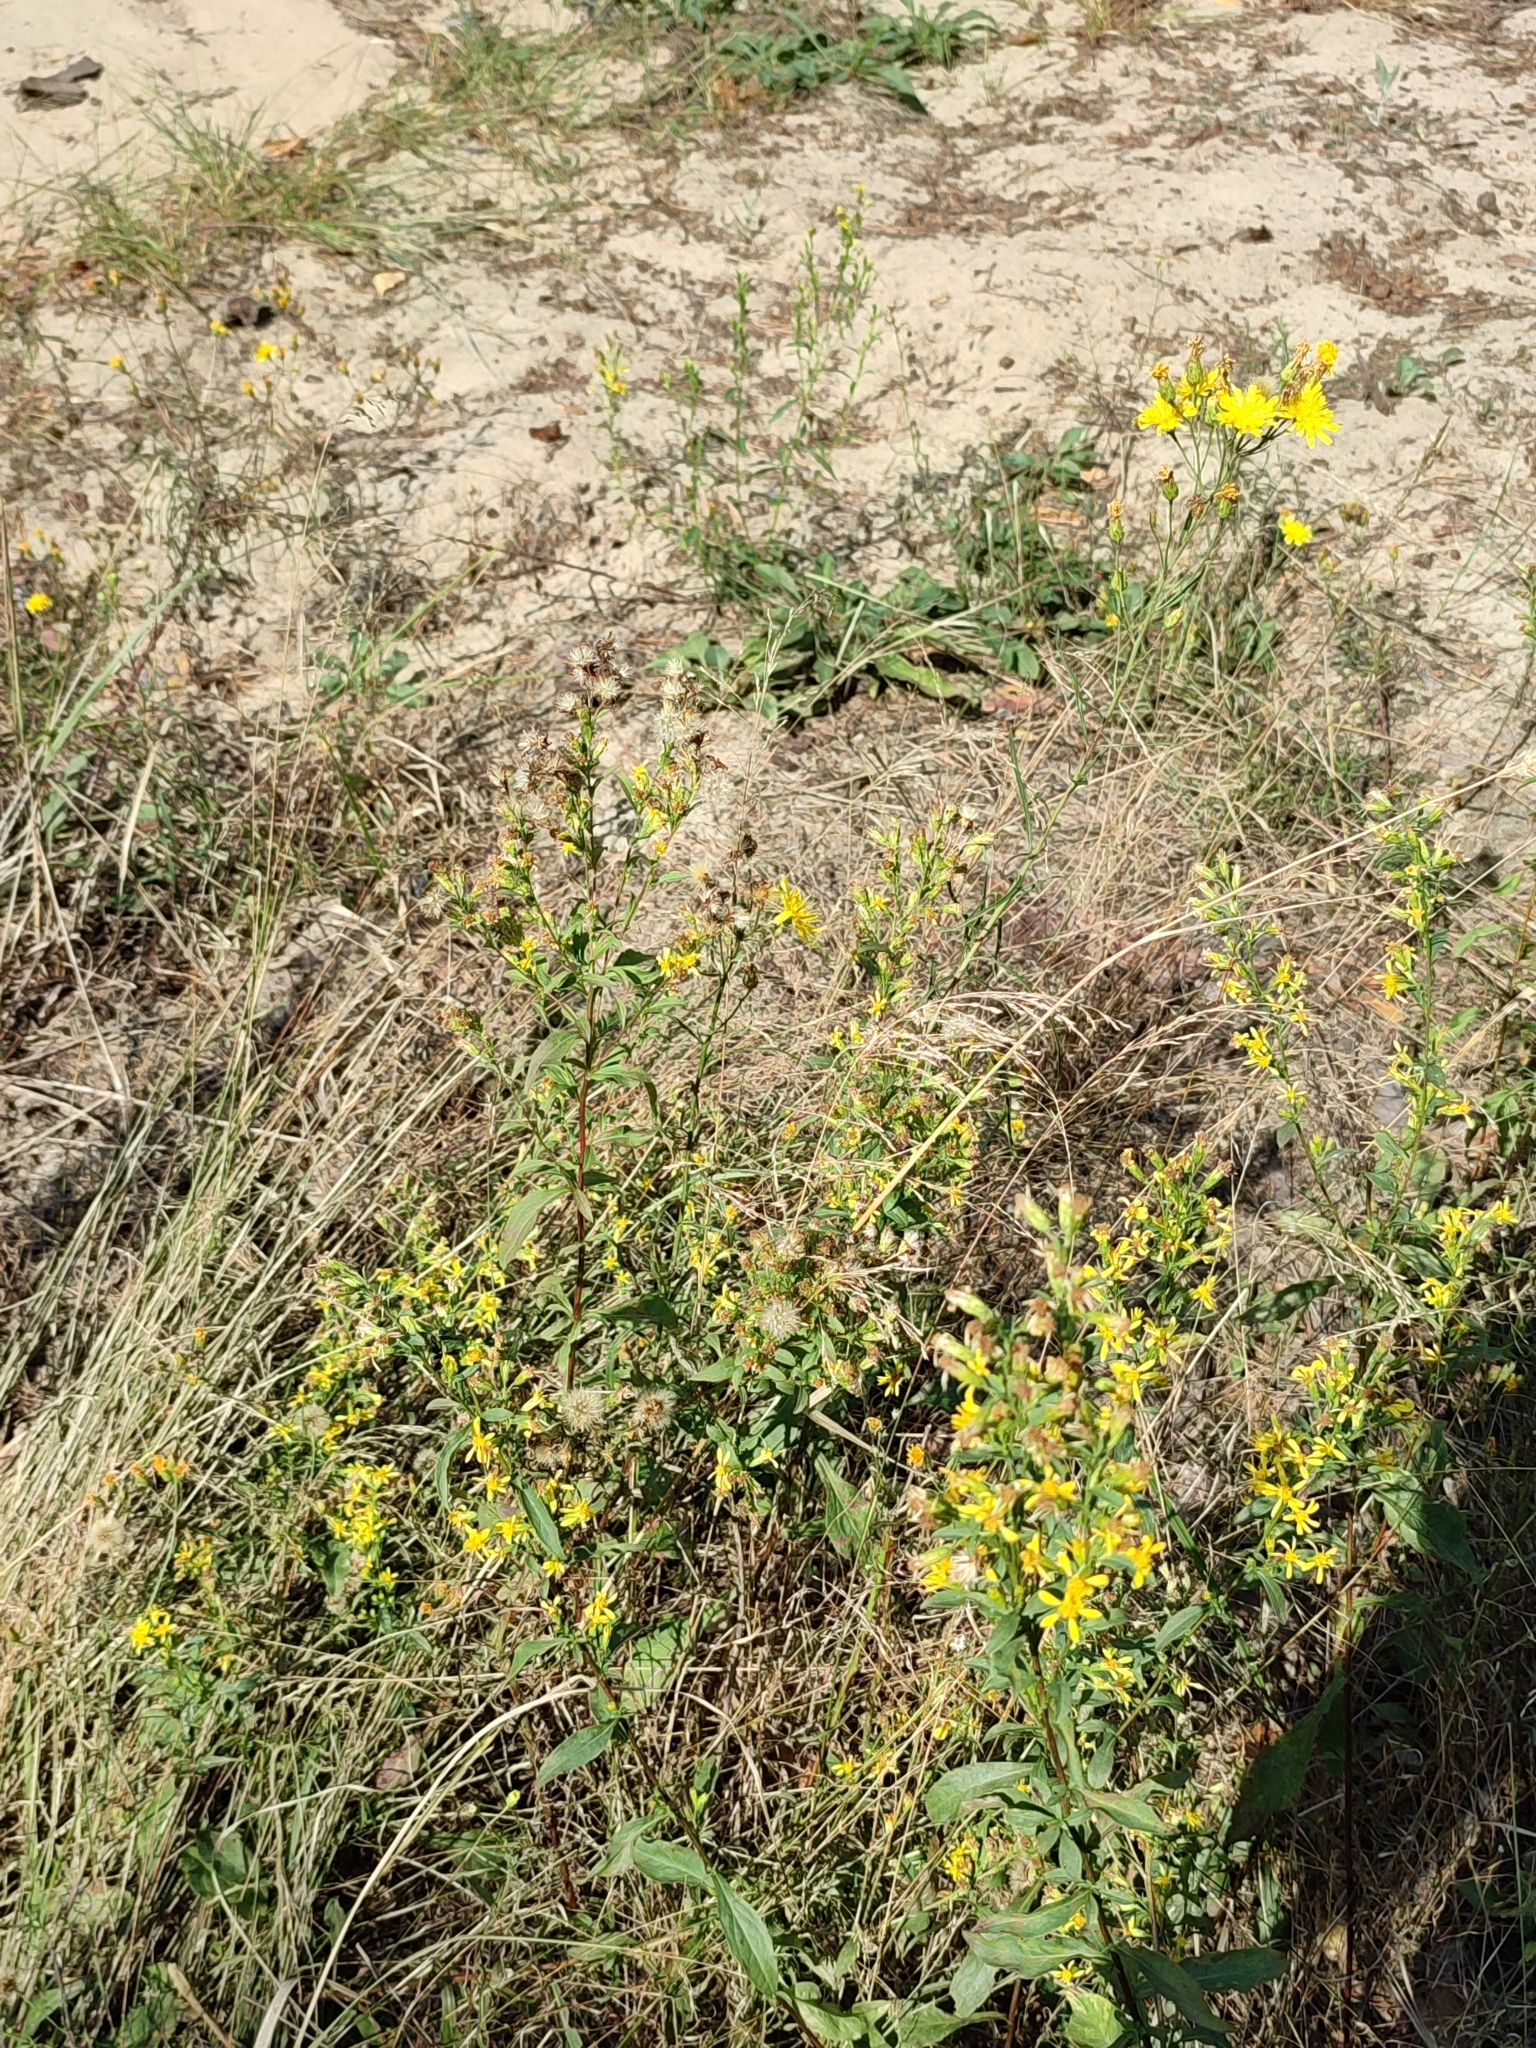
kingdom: Plantae
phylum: Tracheophyta
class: Magnoliopsida
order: Asterales
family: Asteraceae
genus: Solidago
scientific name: Solidago virgaurea
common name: Goldenrod
